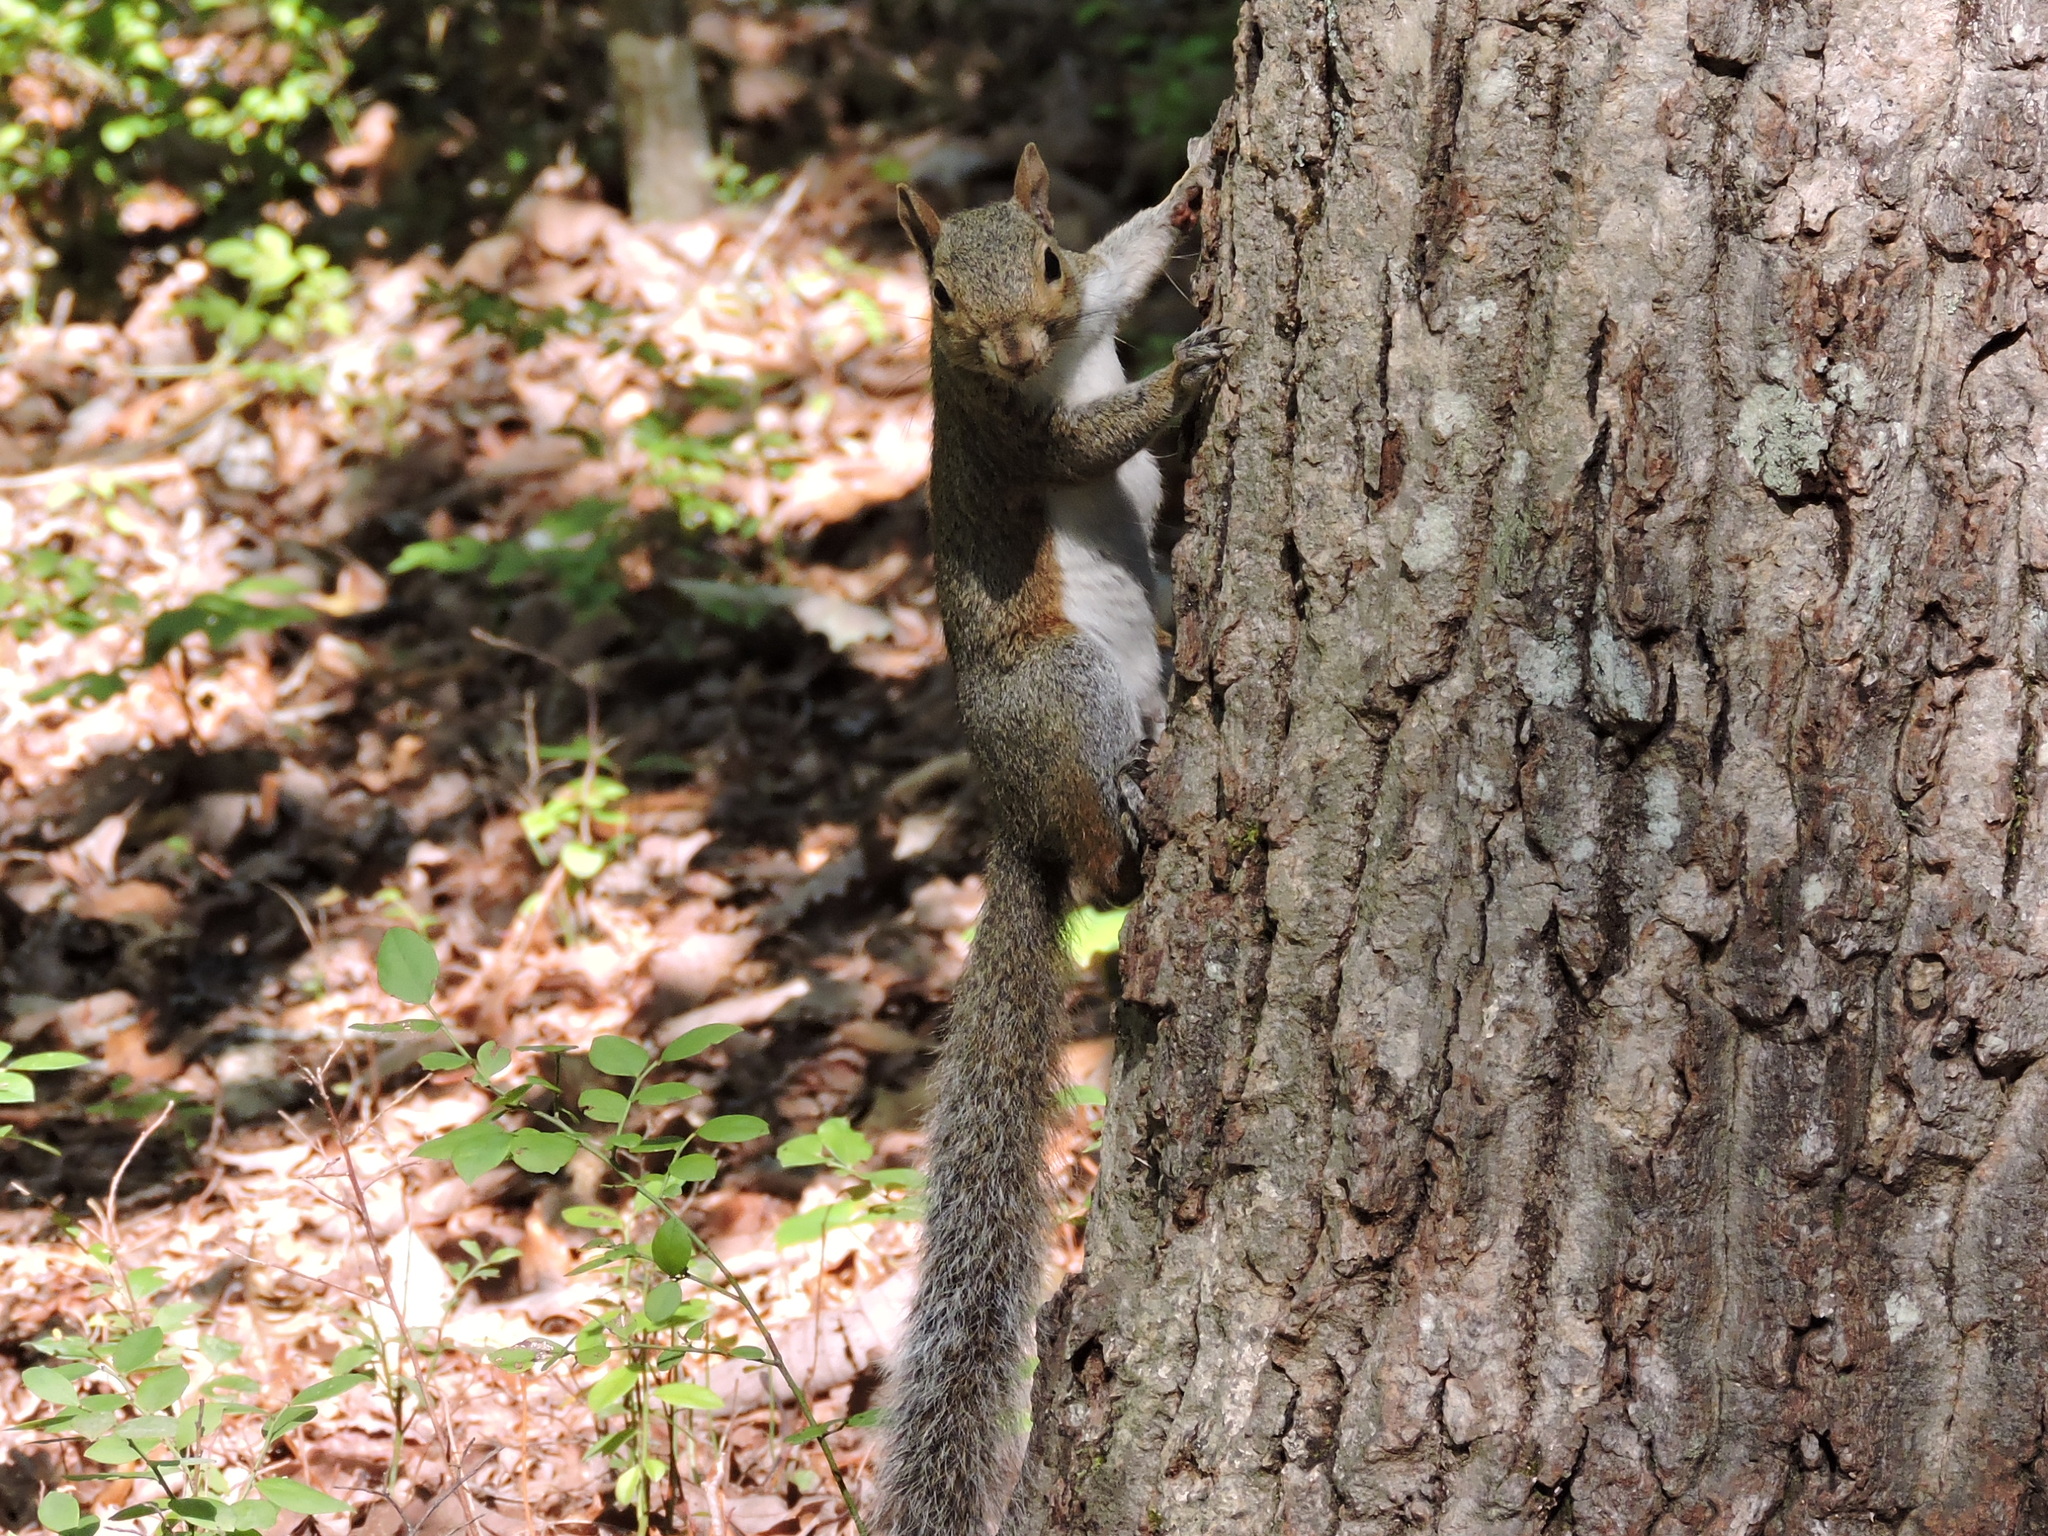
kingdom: Animalia
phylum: Chordata
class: Mammalia
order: Rodentia
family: Sciuridae
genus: Sciurus
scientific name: Sciurus carolinensis
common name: Eastern gray squirrel
